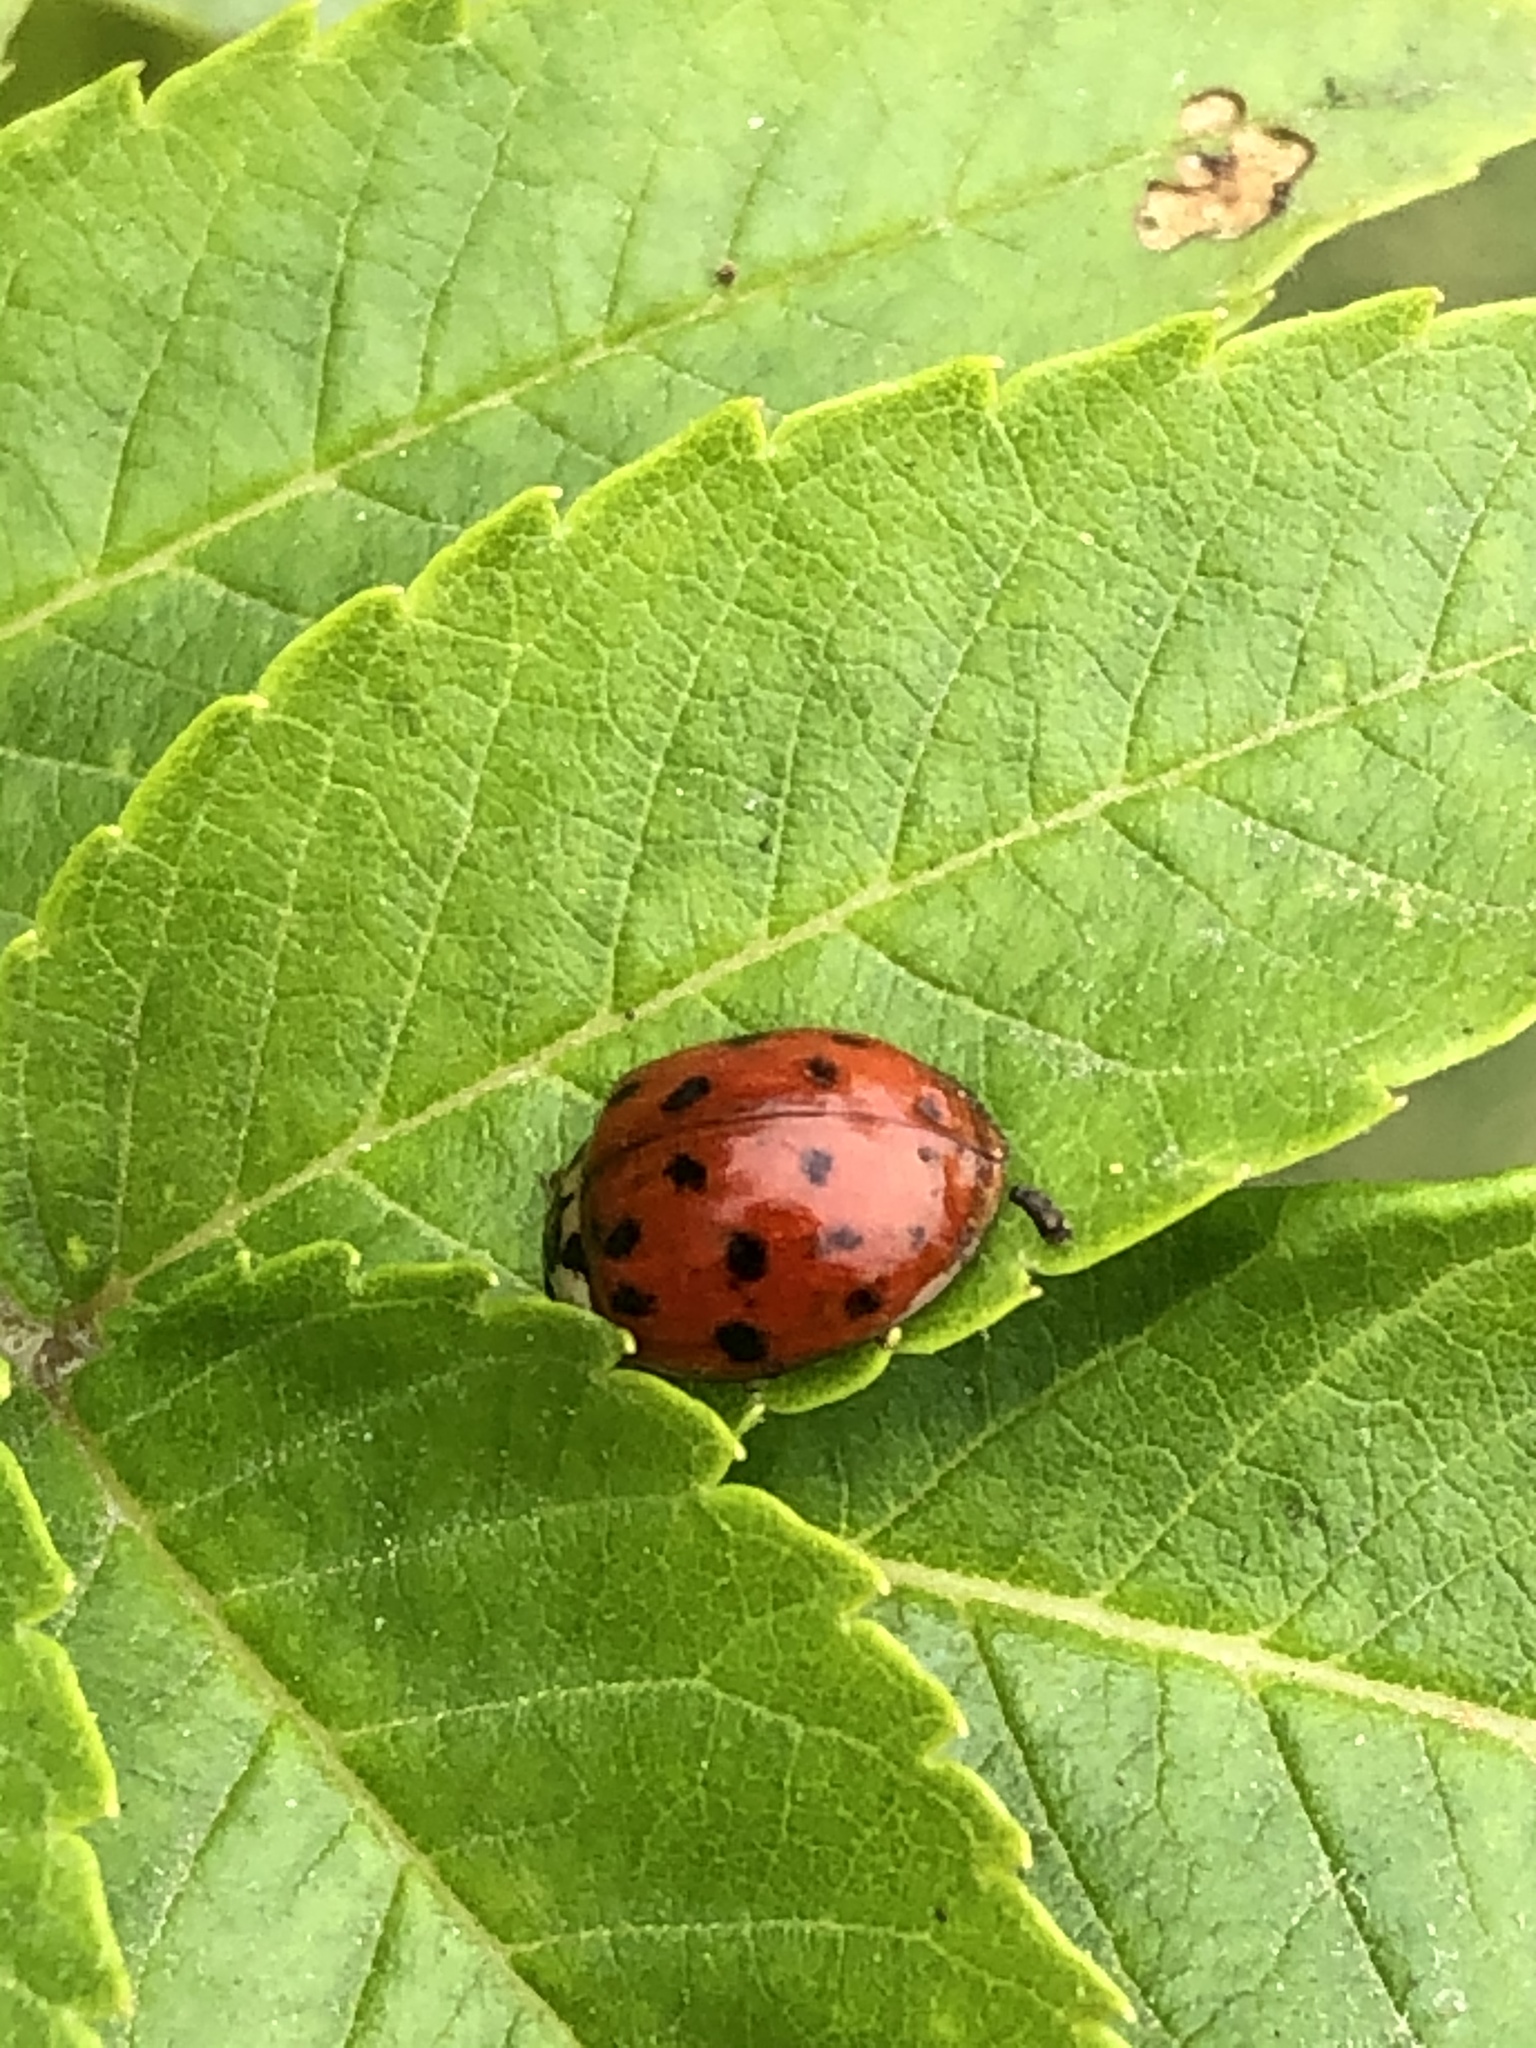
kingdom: Animalia
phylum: Arthropoda
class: Insecta
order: Coleoptera
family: Coccinellidae
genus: Harmonia
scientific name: Harmonia axyridis
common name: Harlequin ladybird
